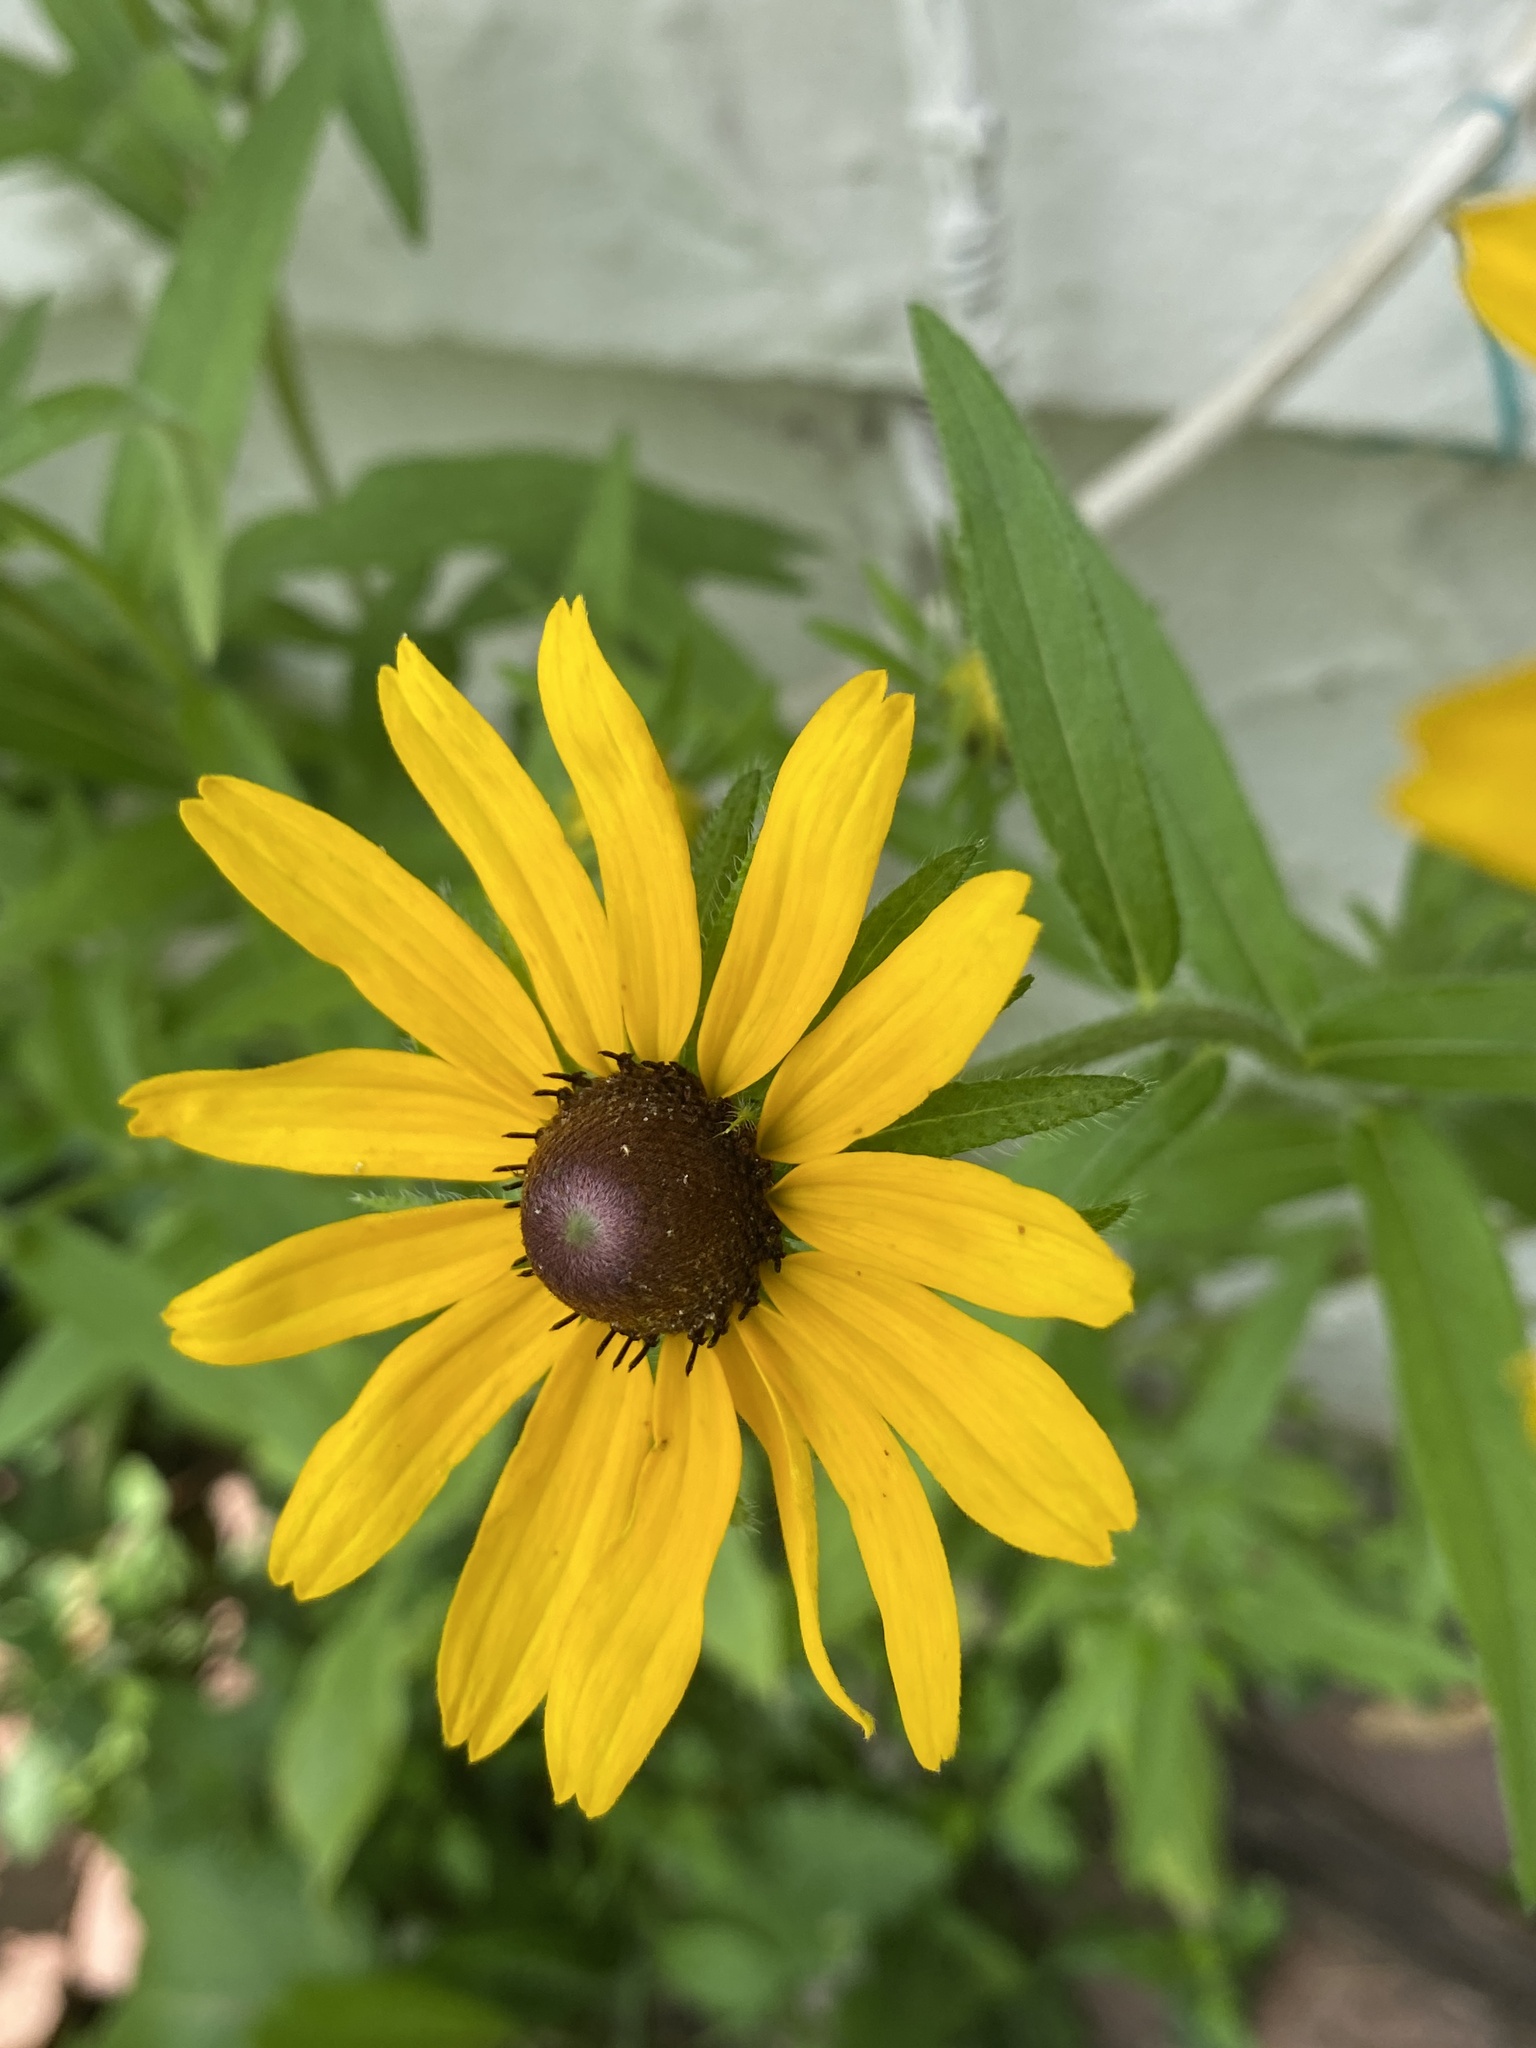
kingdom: Plantae
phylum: Tracheophyta
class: Magnoliopsida
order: Asterales
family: Asteraceae
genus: Rudbeckia
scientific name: Rudbeckia hirta
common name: Black-eyed-susan
